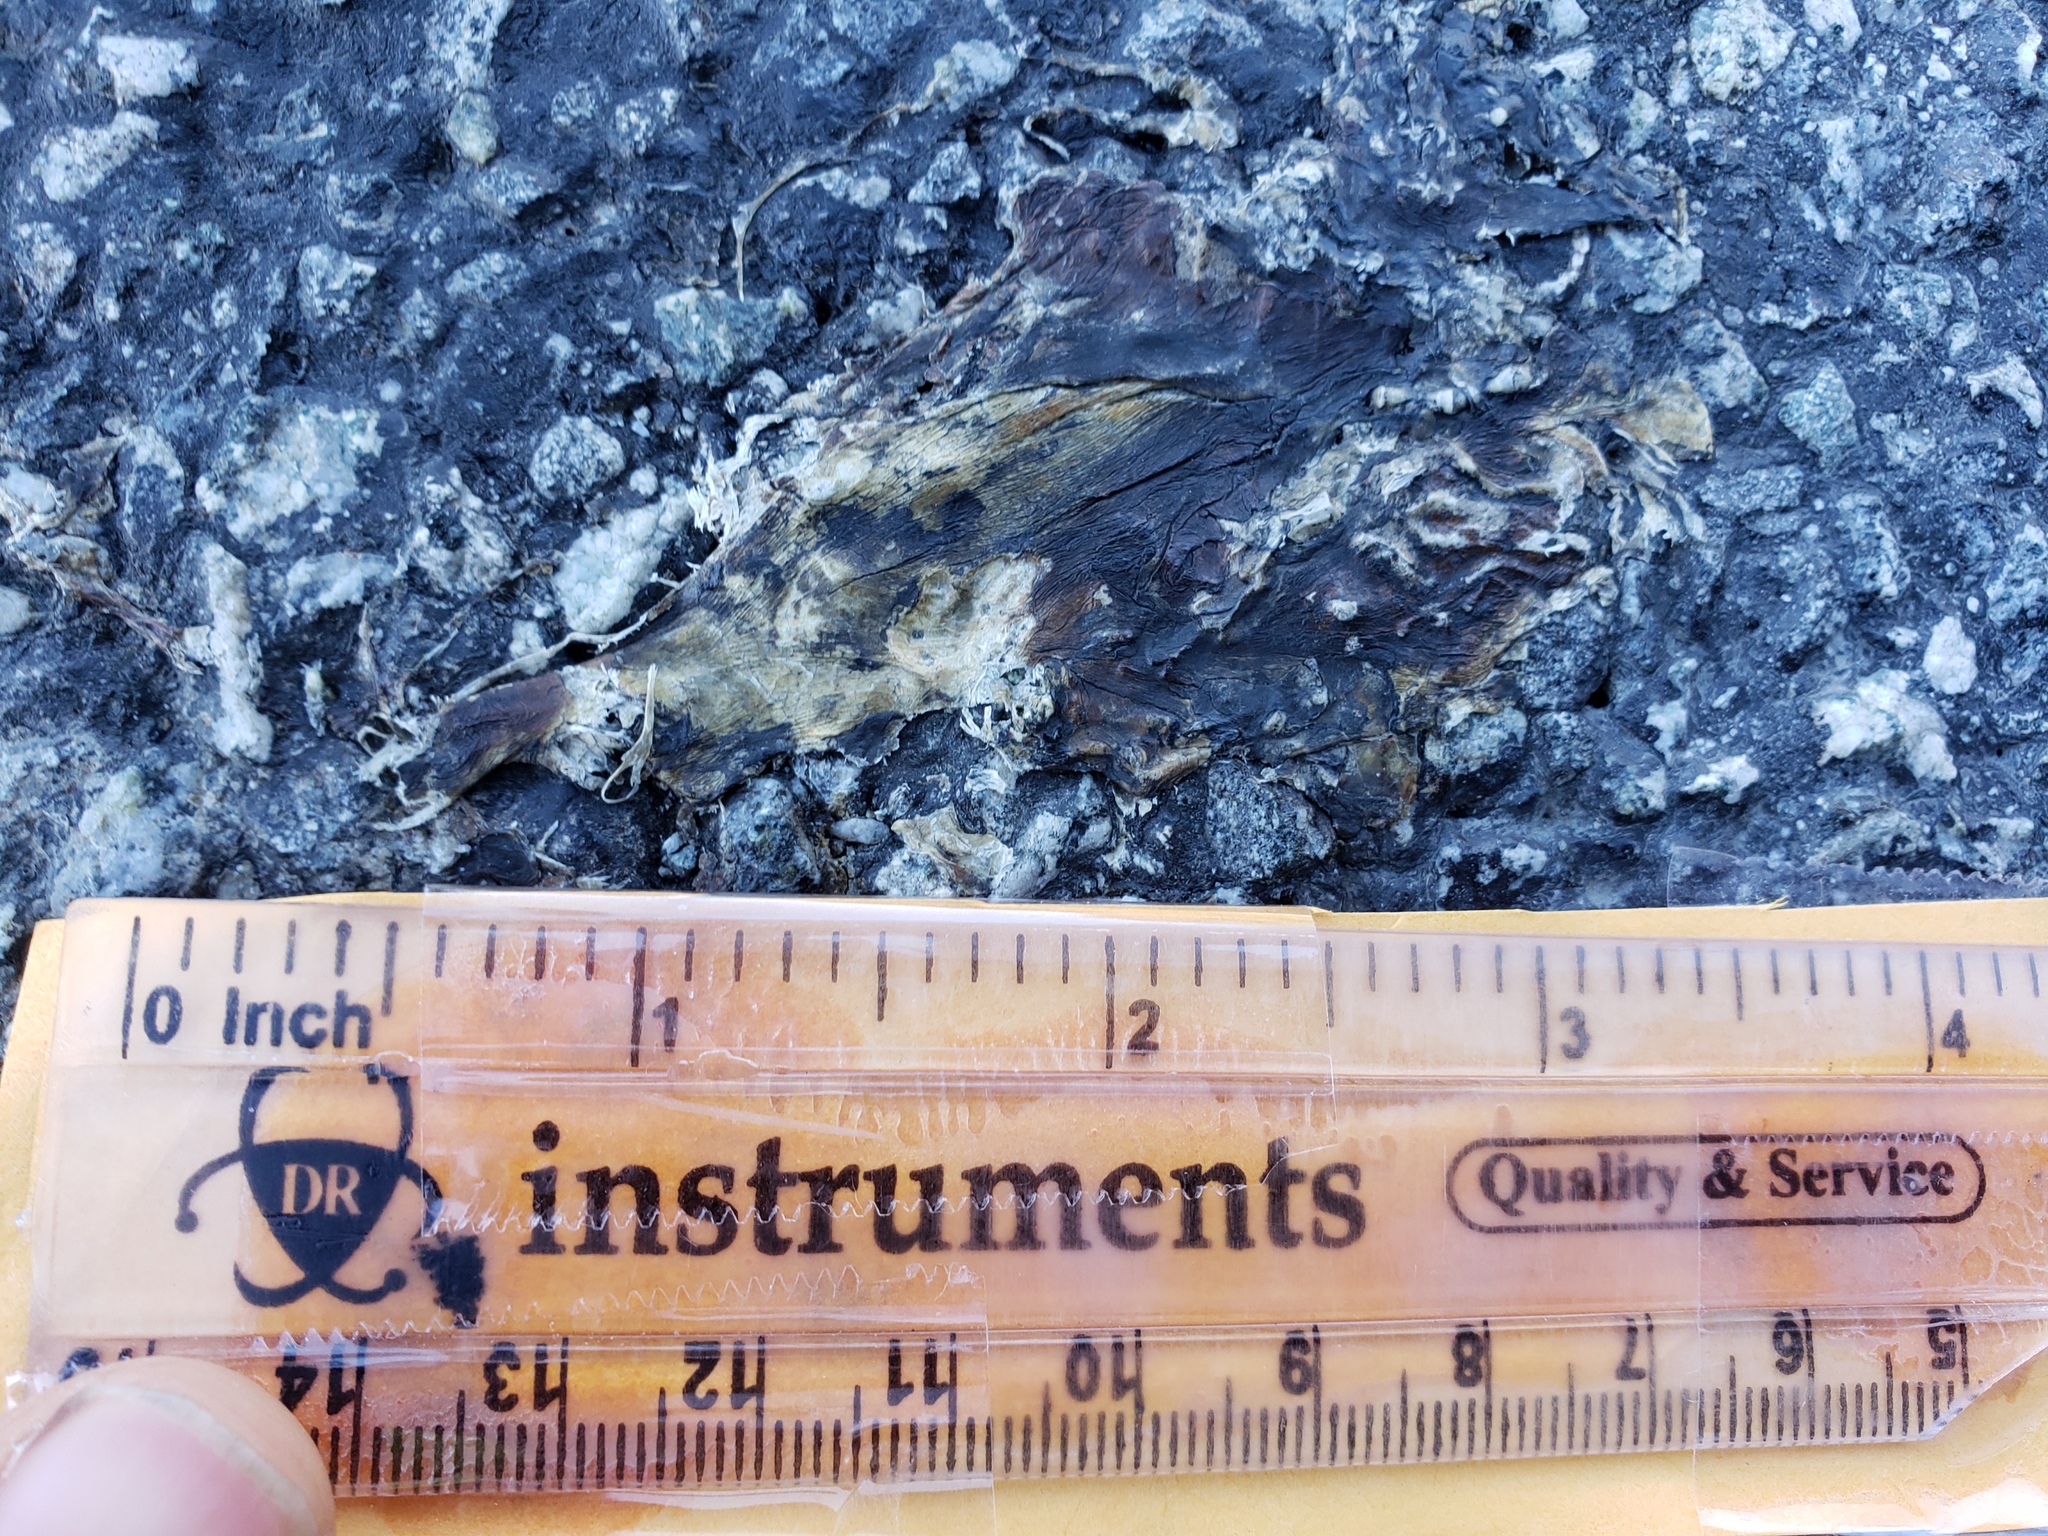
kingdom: Animalia
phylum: Chordata
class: Amphibia
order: Caudata
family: Salamandridae
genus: Taricha
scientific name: Taricha
